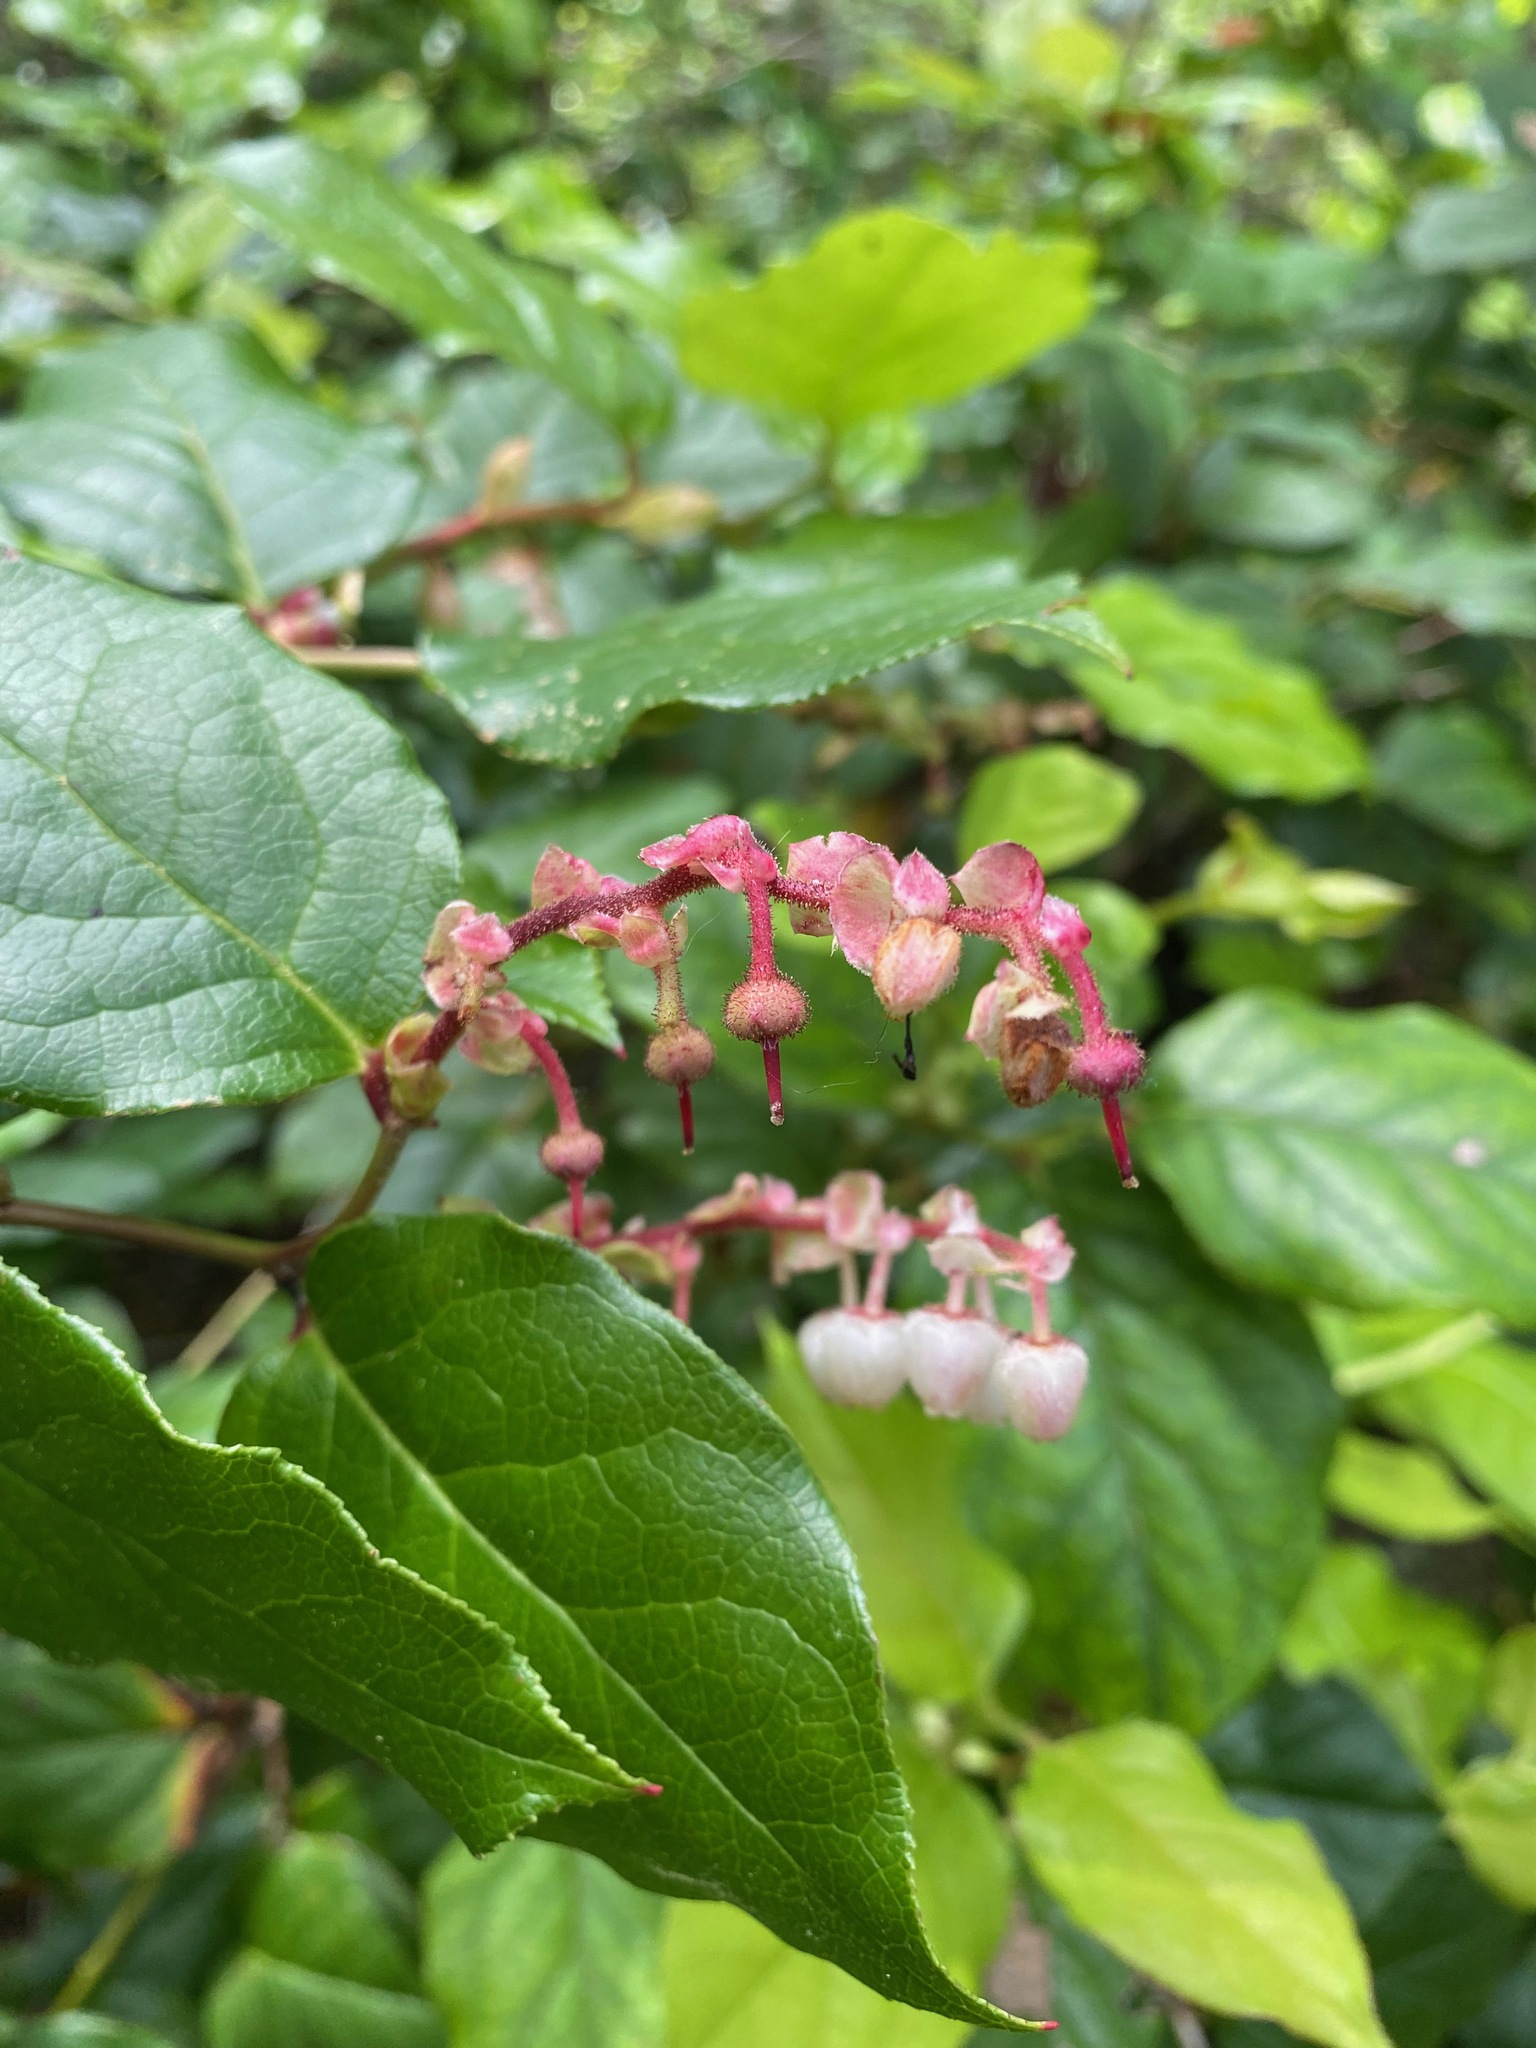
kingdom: Plantae
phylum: Tracheophyta
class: Magnoliopsida
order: Ericales
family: Ericaceae
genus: Gaultheria
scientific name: Gaultheria shallon
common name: Shallon
